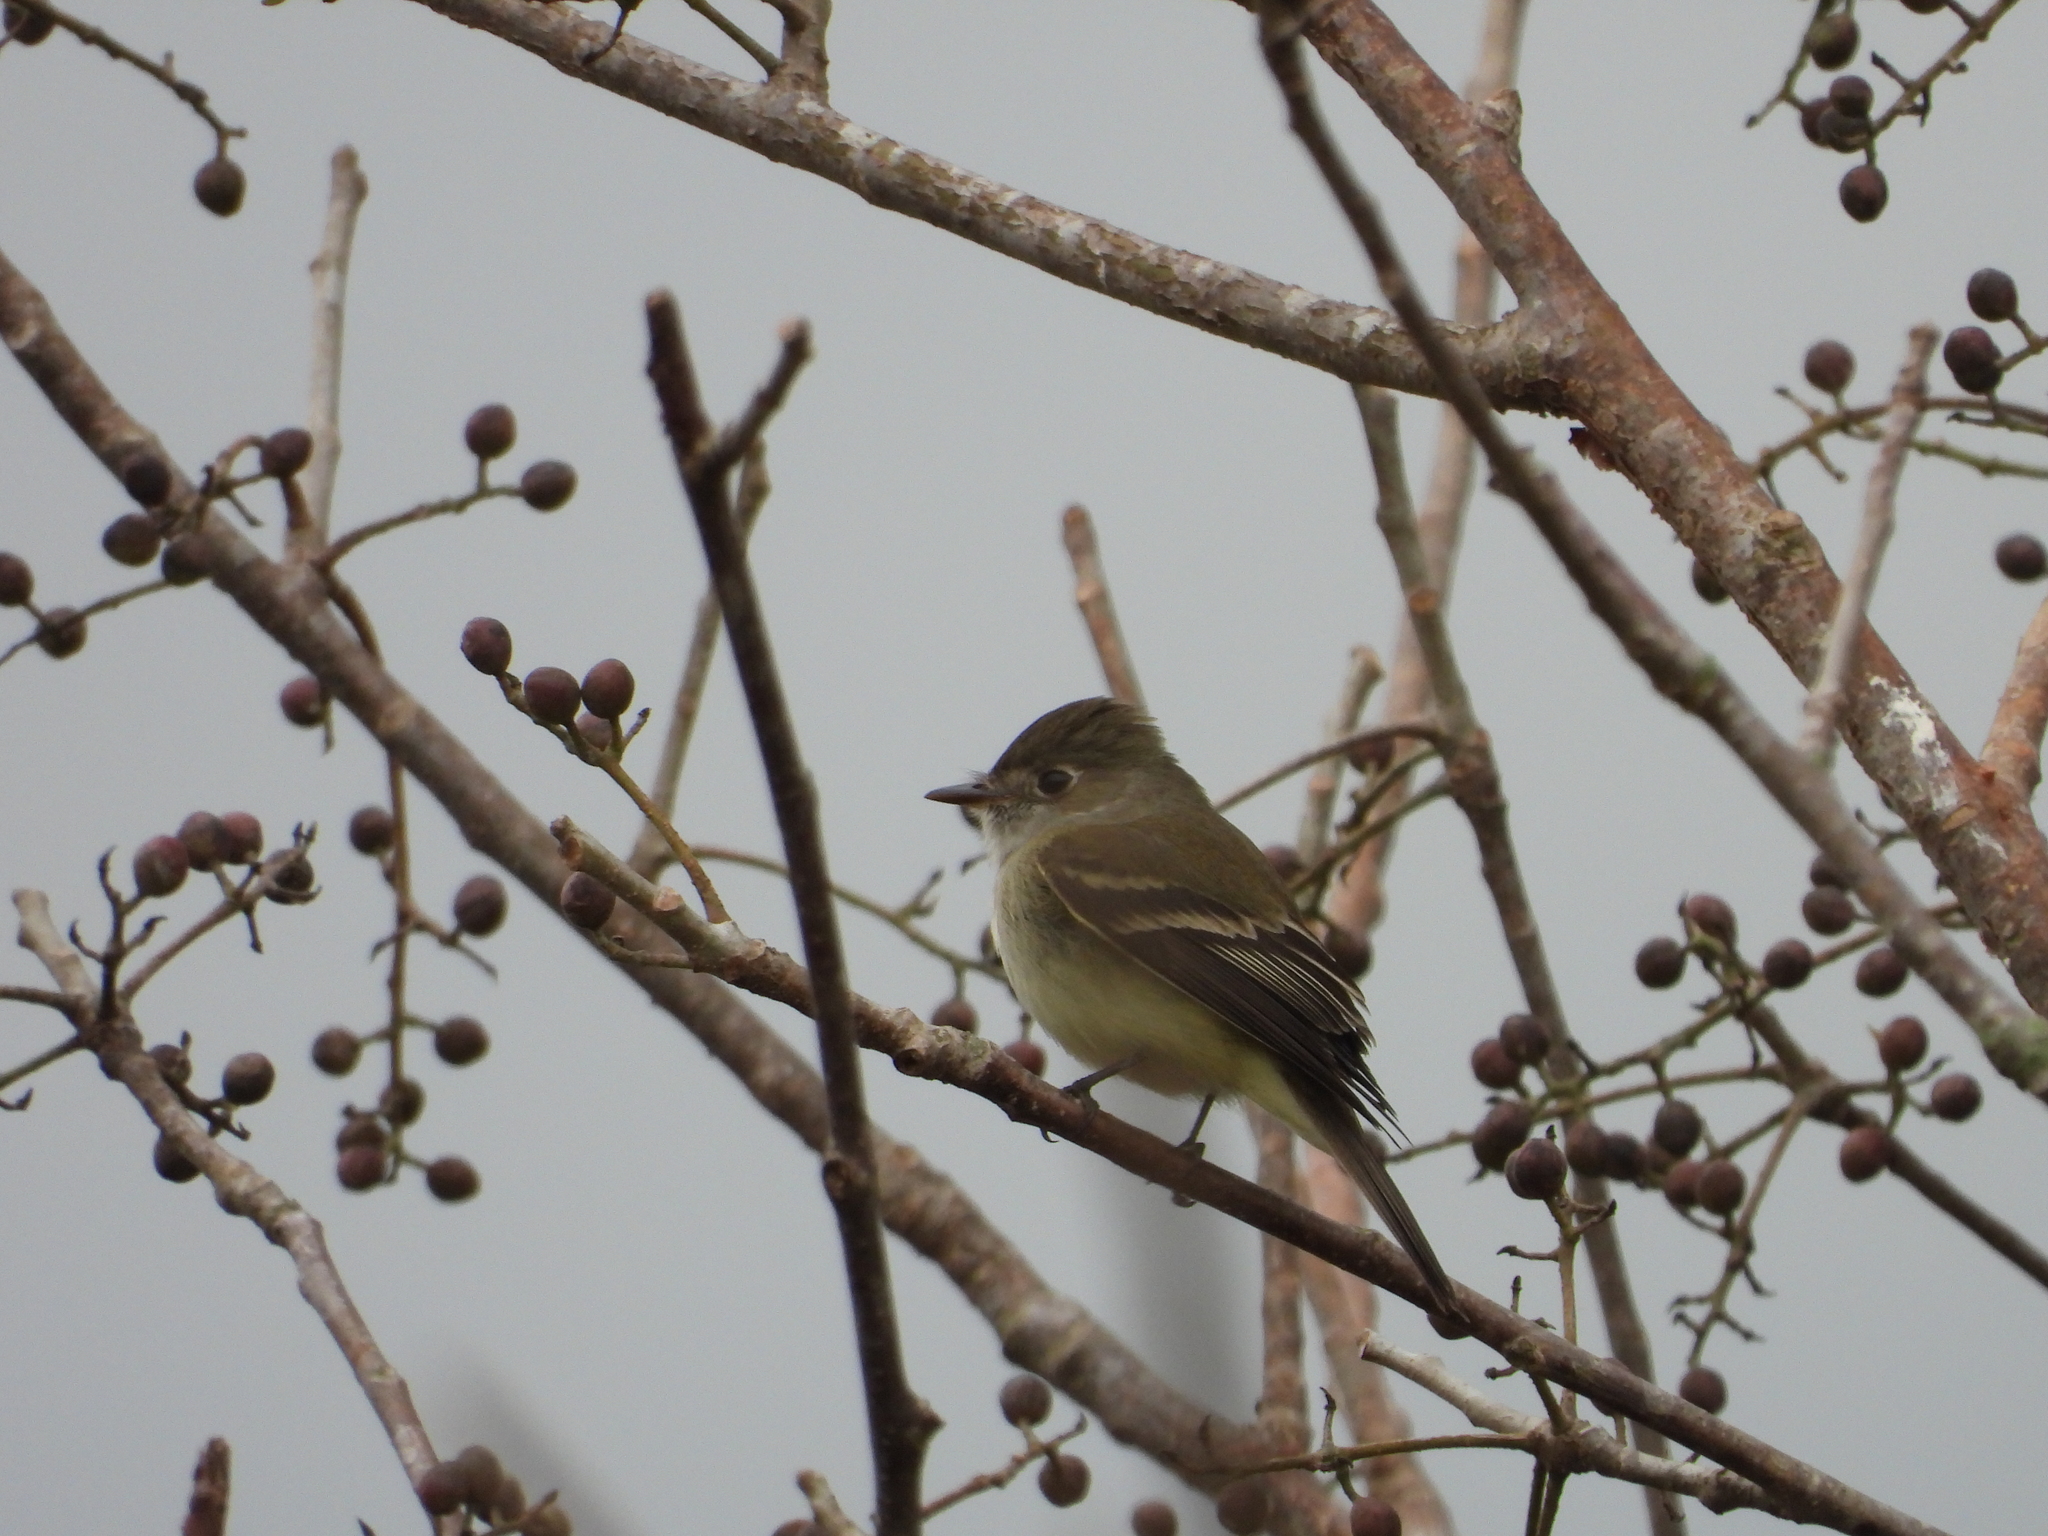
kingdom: Animalia
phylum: Chordata
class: Aves
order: Passeriformes
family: Tyrannidae
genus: Empidonax
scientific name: Empidonax minimus
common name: Least flycatcher
